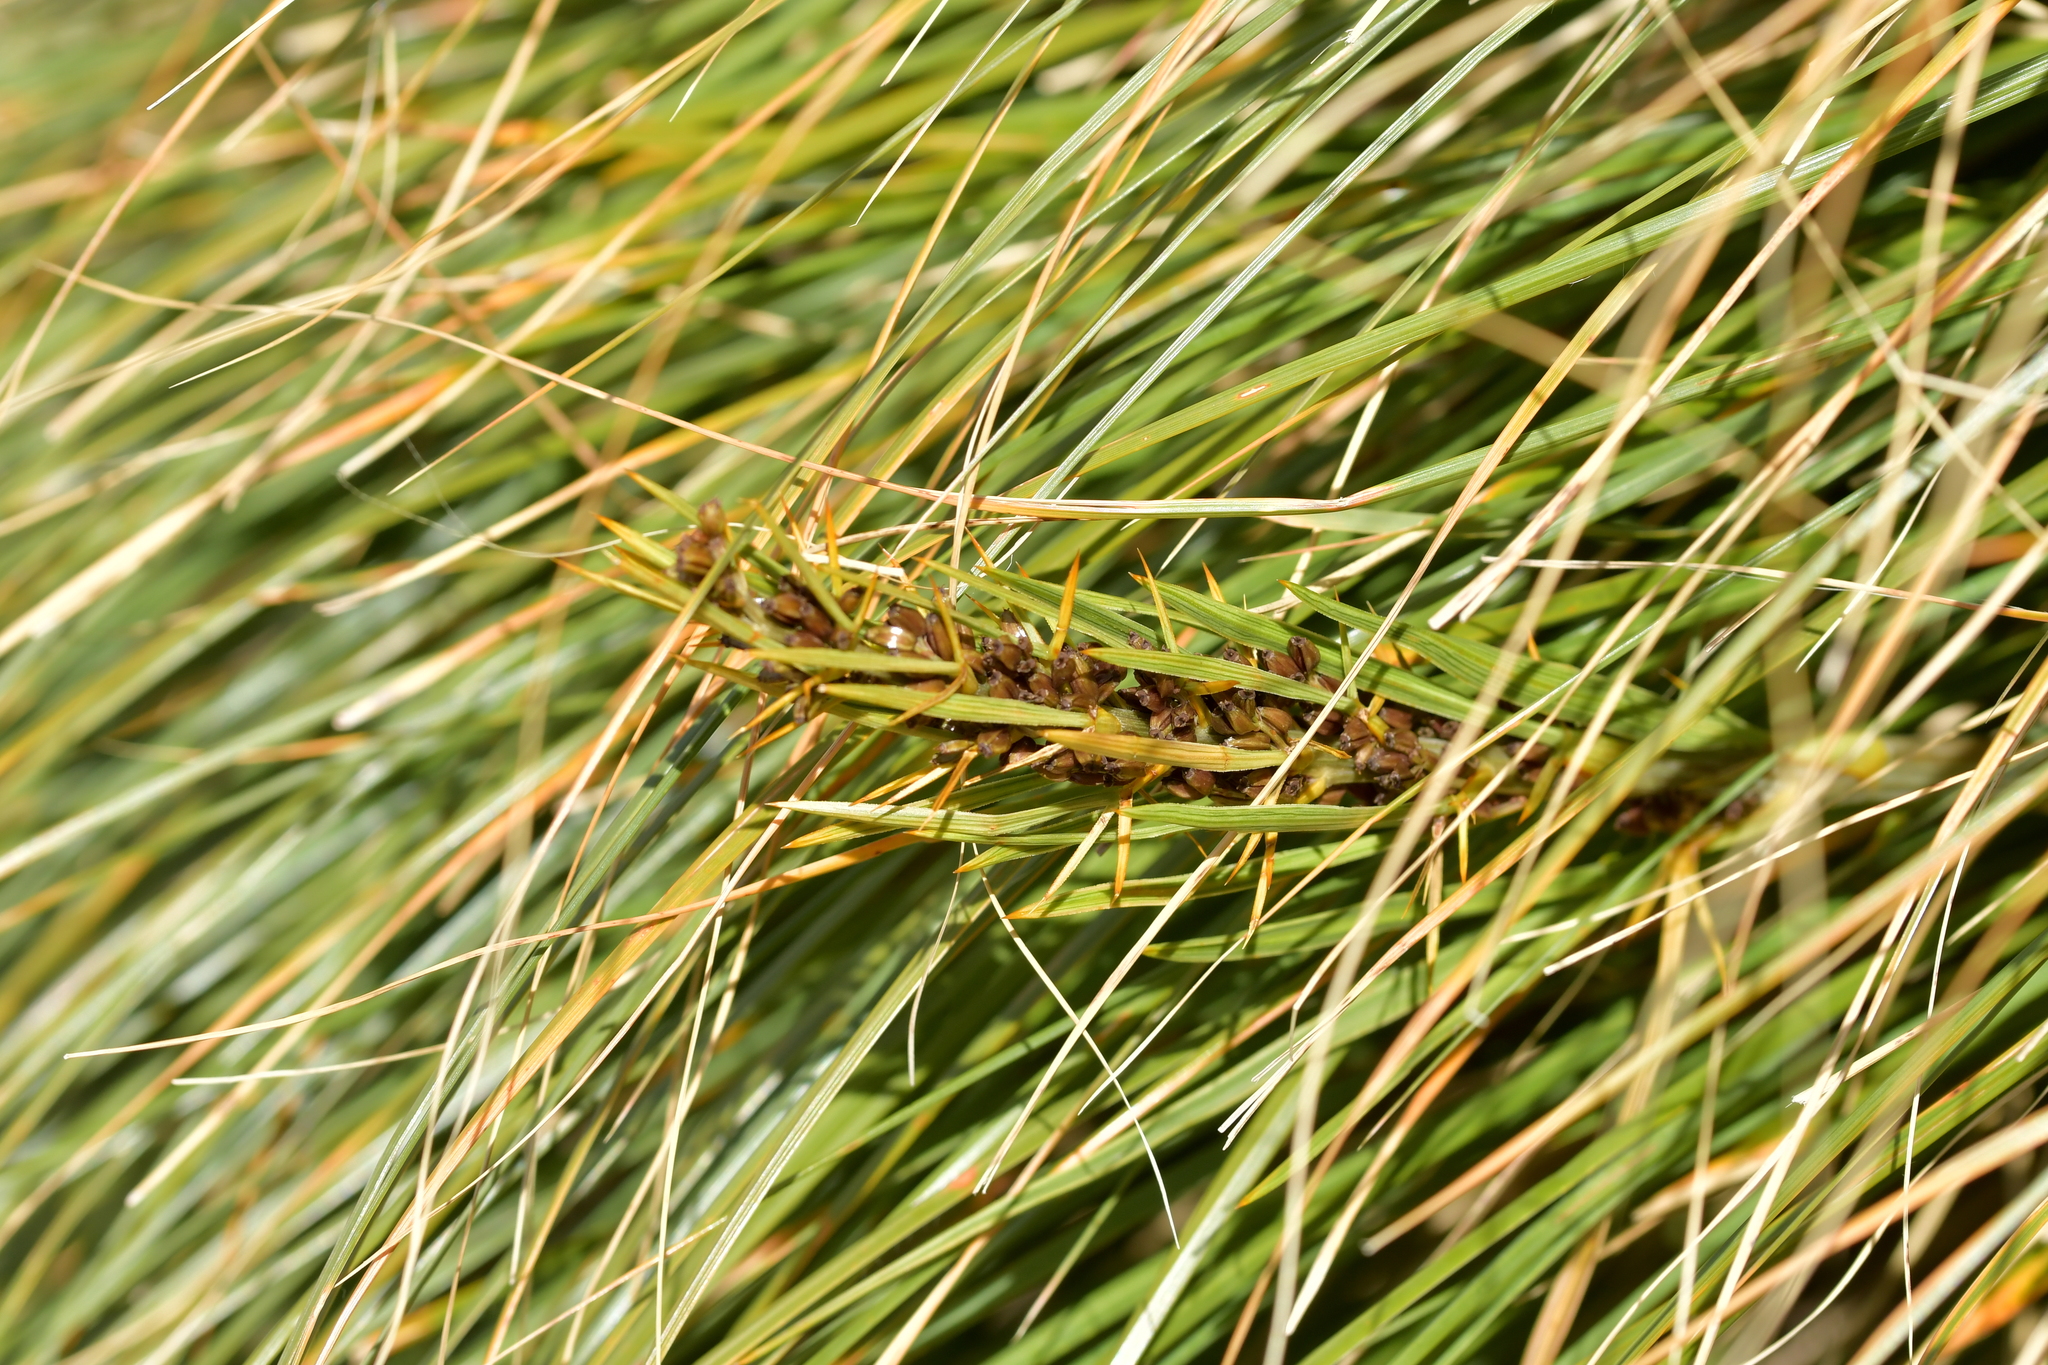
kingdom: Plantae
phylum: Tracheophyta
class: Magnoliopsida
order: Apiales
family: Apiaceae
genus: Aciphylla
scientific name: Aciphylla crenulata
